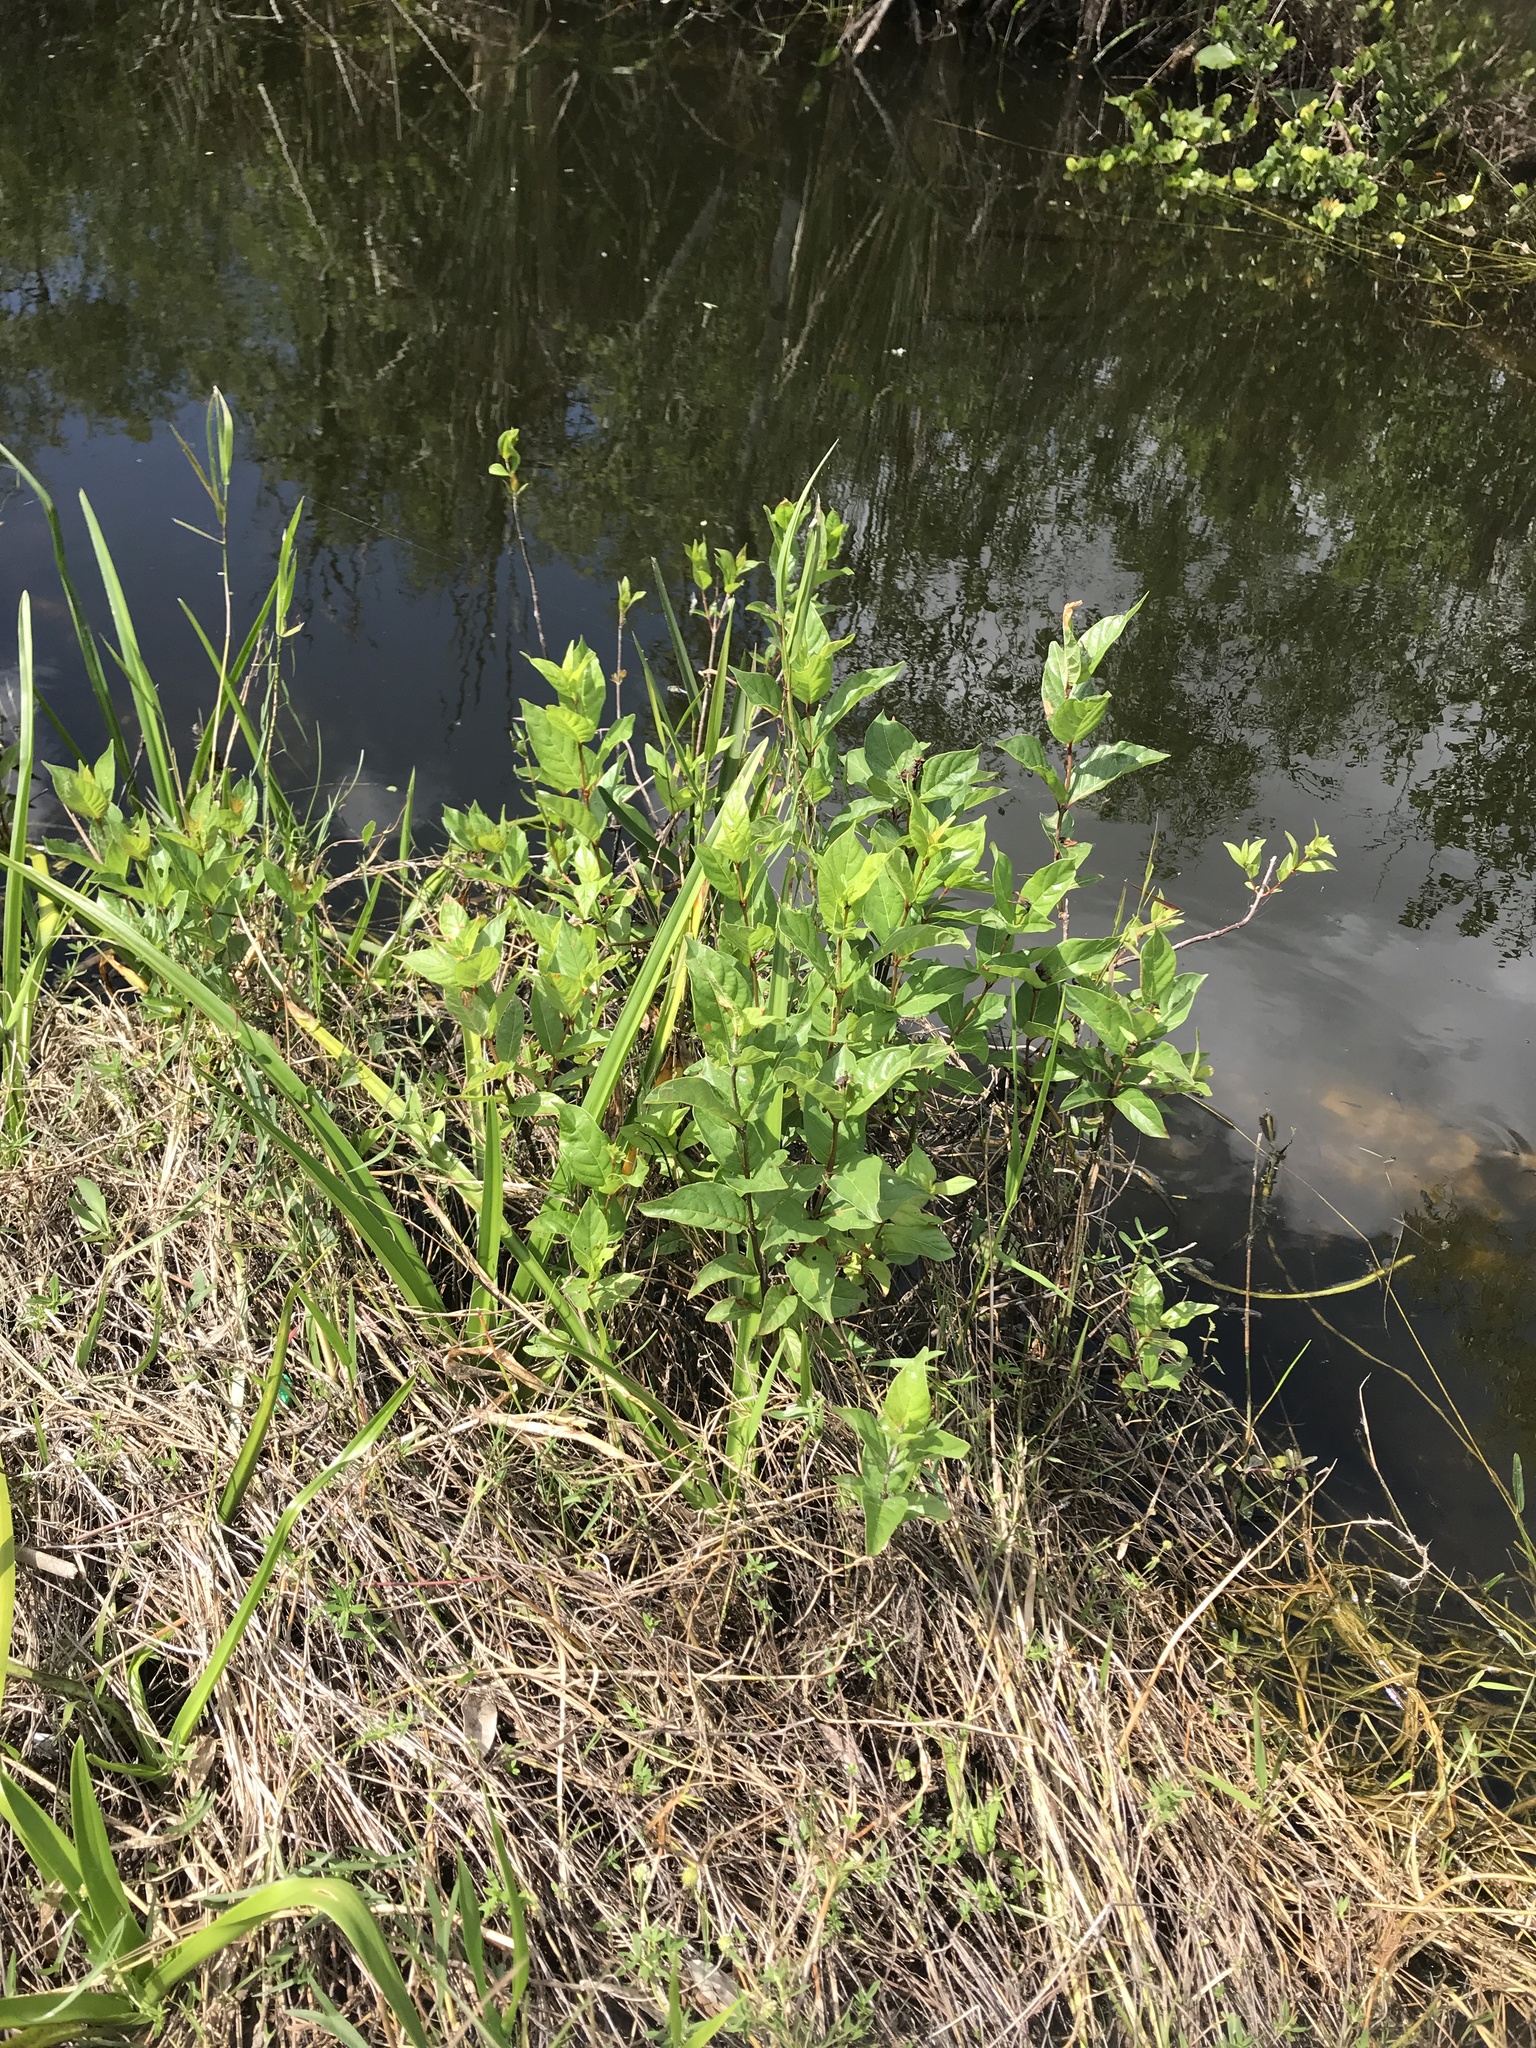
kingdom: Plantae
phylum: Tracheophyta
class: Magnoliopsida
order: Gentianales
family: Rubiaceae
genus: Cephalanthus
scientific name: Cephalanthus occidentalis
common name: Button-willow
